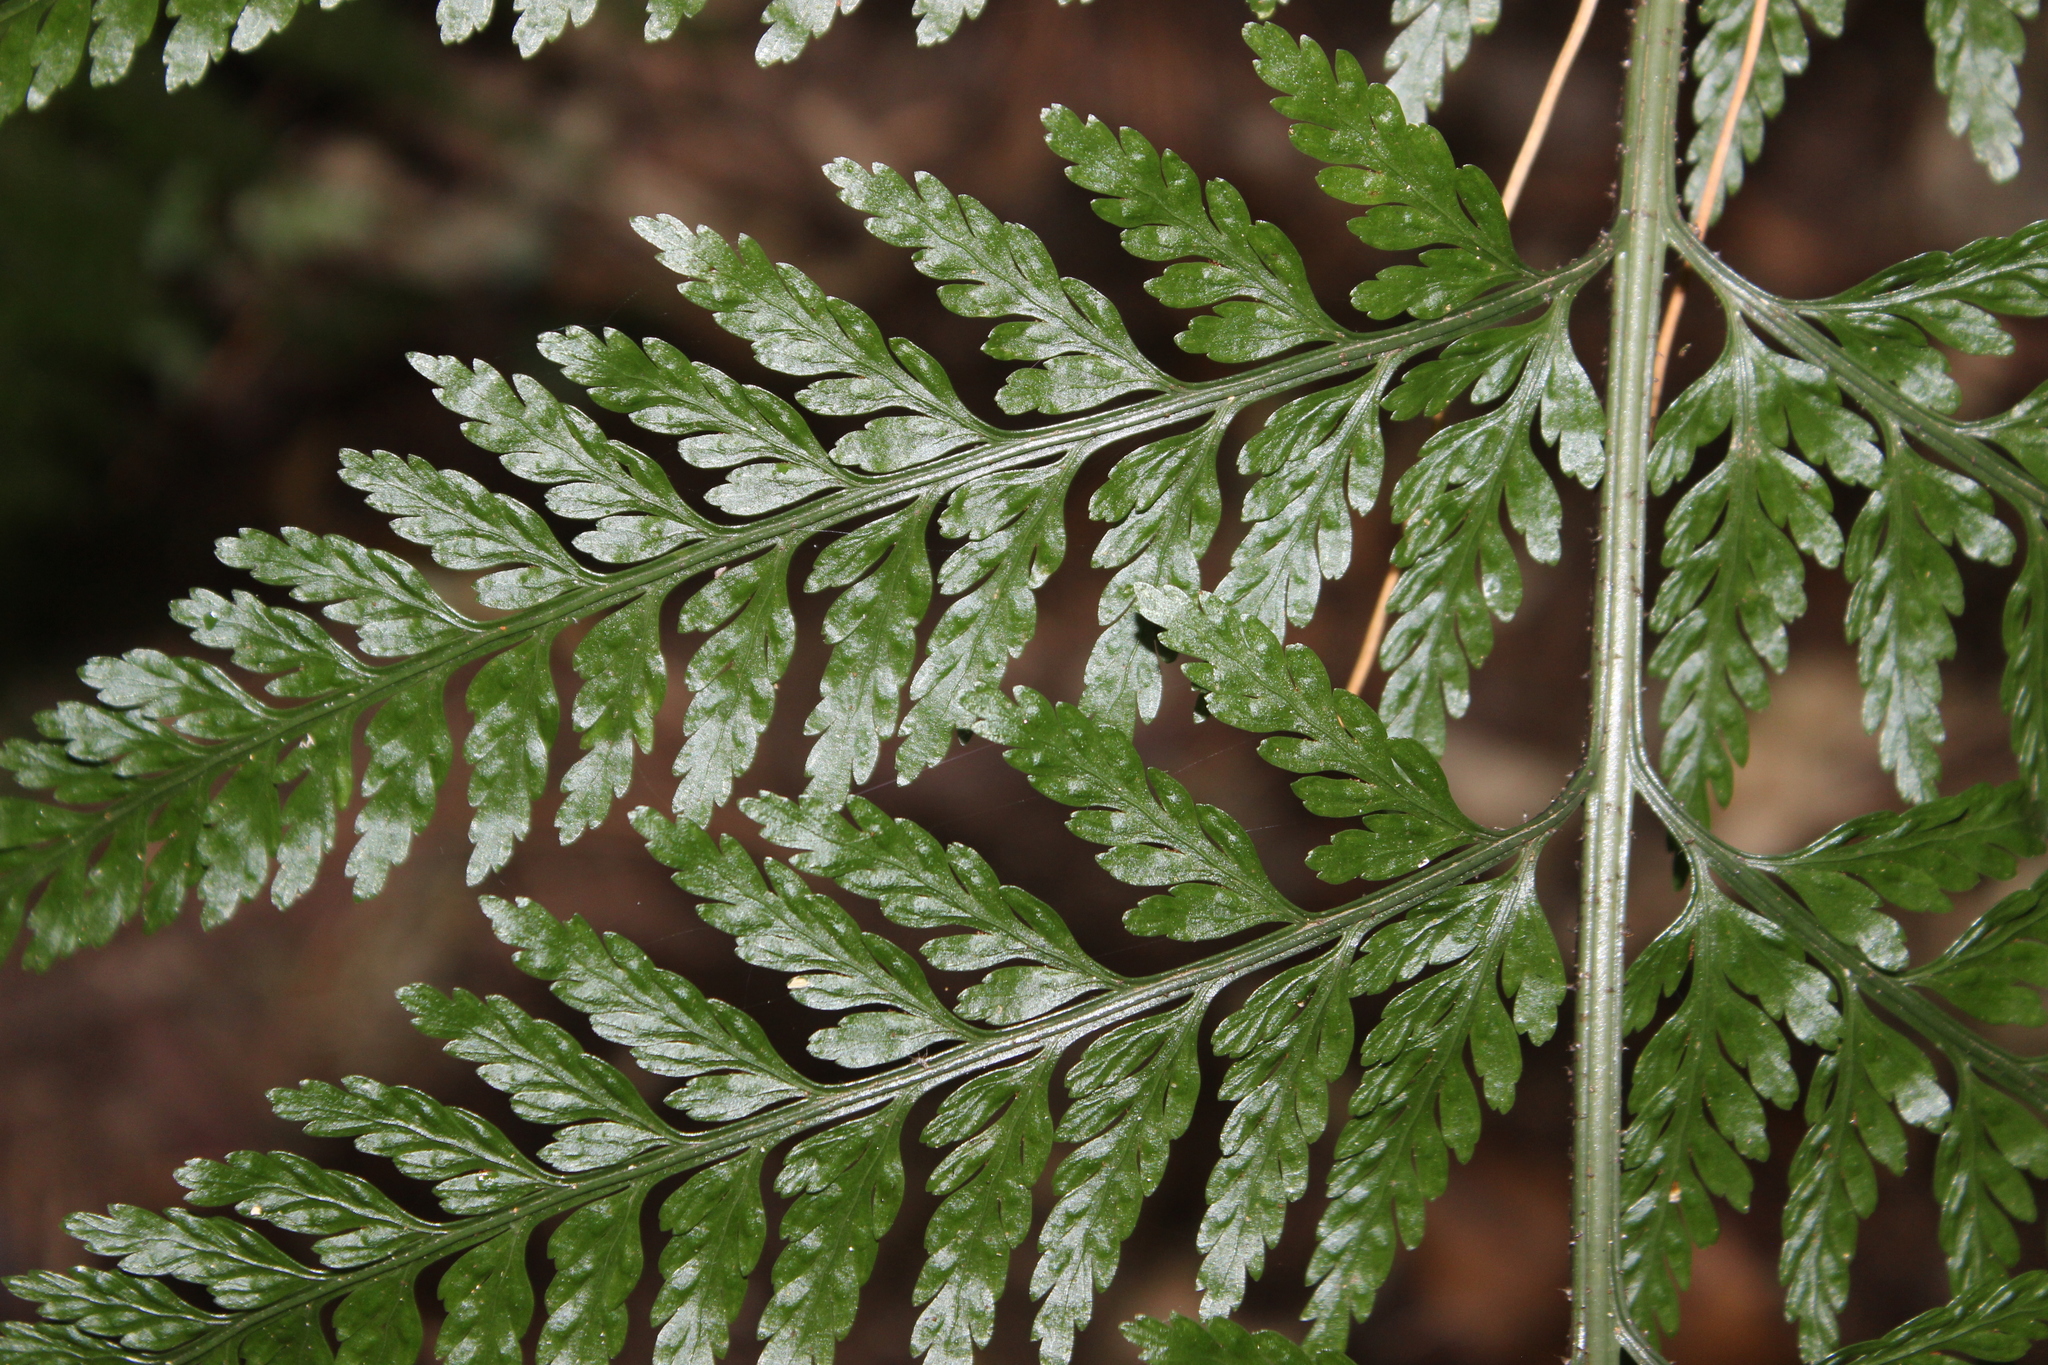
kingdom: Plantae
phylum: Tracheophyta
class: Polypodiopsida
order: Polypodiales
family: Aspleniaceae
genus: Asplenium
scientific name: Asplenium
